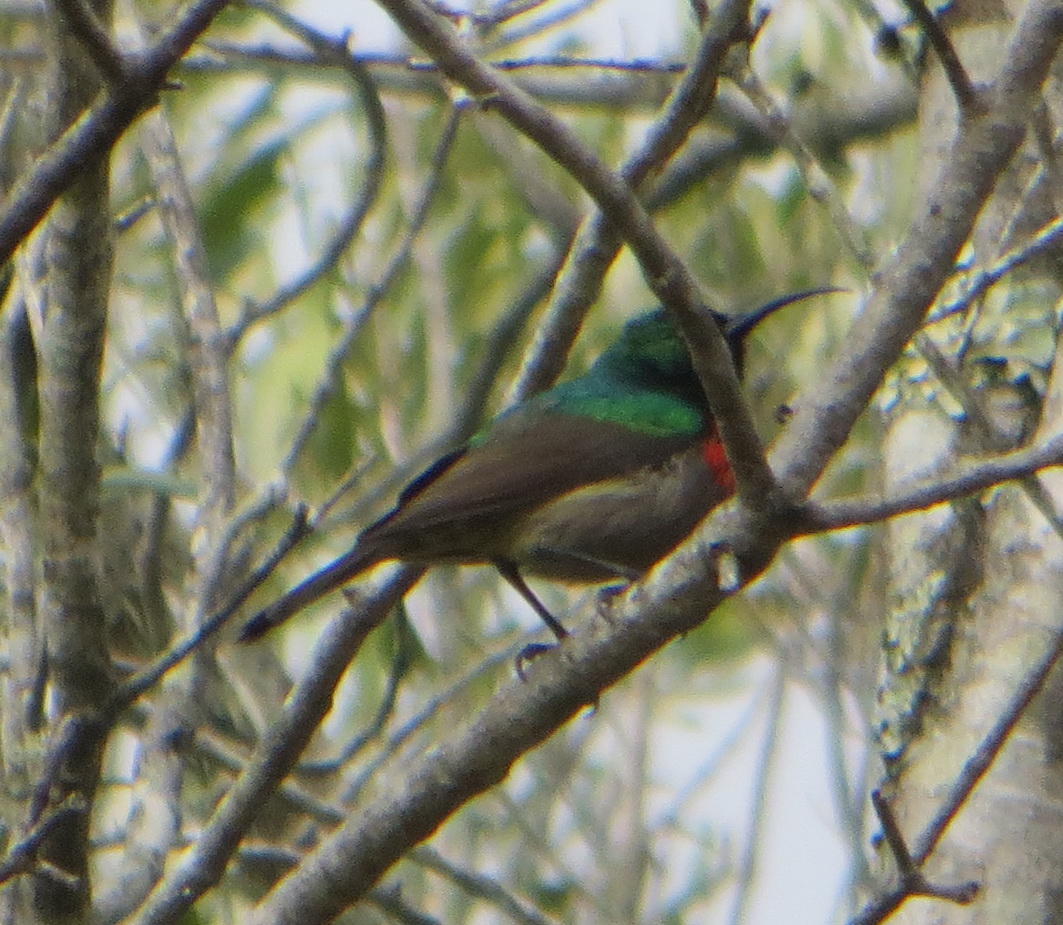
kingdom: Animalia
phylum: Chordata
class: Aves
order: Passeriformes
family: Nectariniidae
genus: Cinnyris
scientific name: Cinnyris afer
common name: Greater double-collared sunbird
